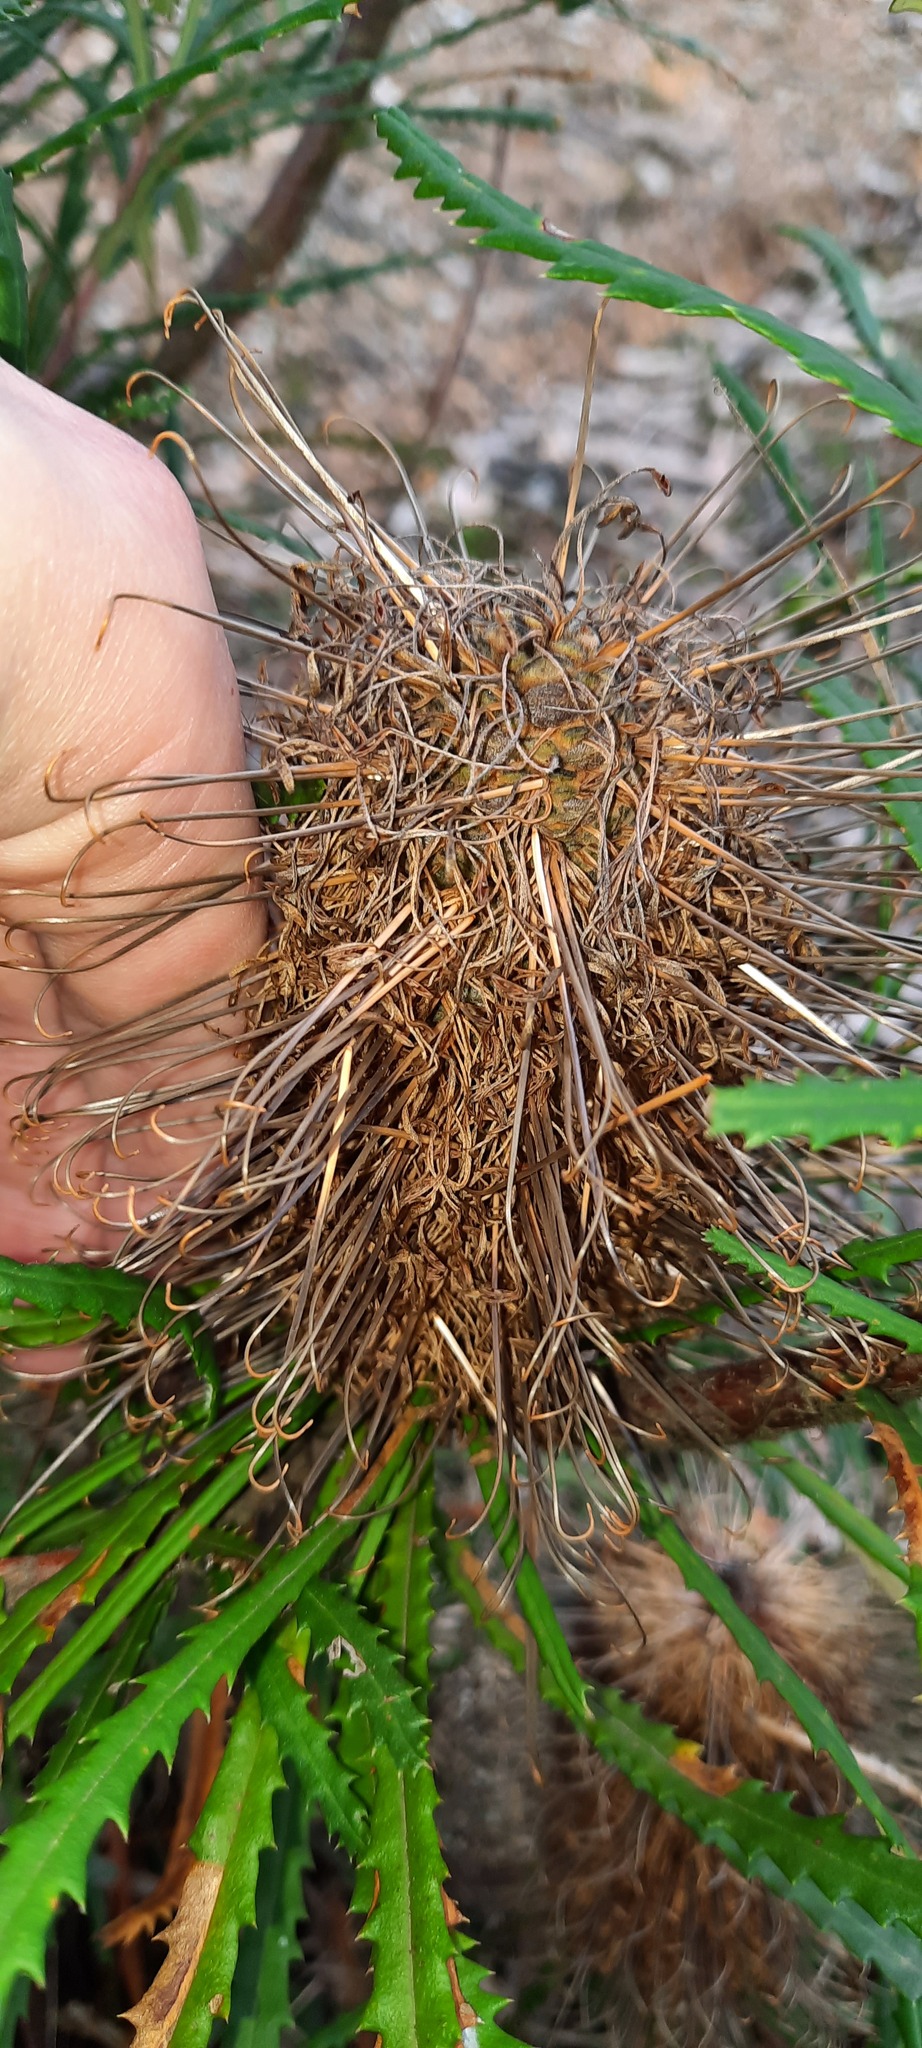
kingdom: Plantae
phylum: Tracheophyta
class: Magnoliopsida
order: Proteales
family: Proteaceae
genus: Banksia
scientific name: Banksia spinulosa
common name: Hairpin banksia
